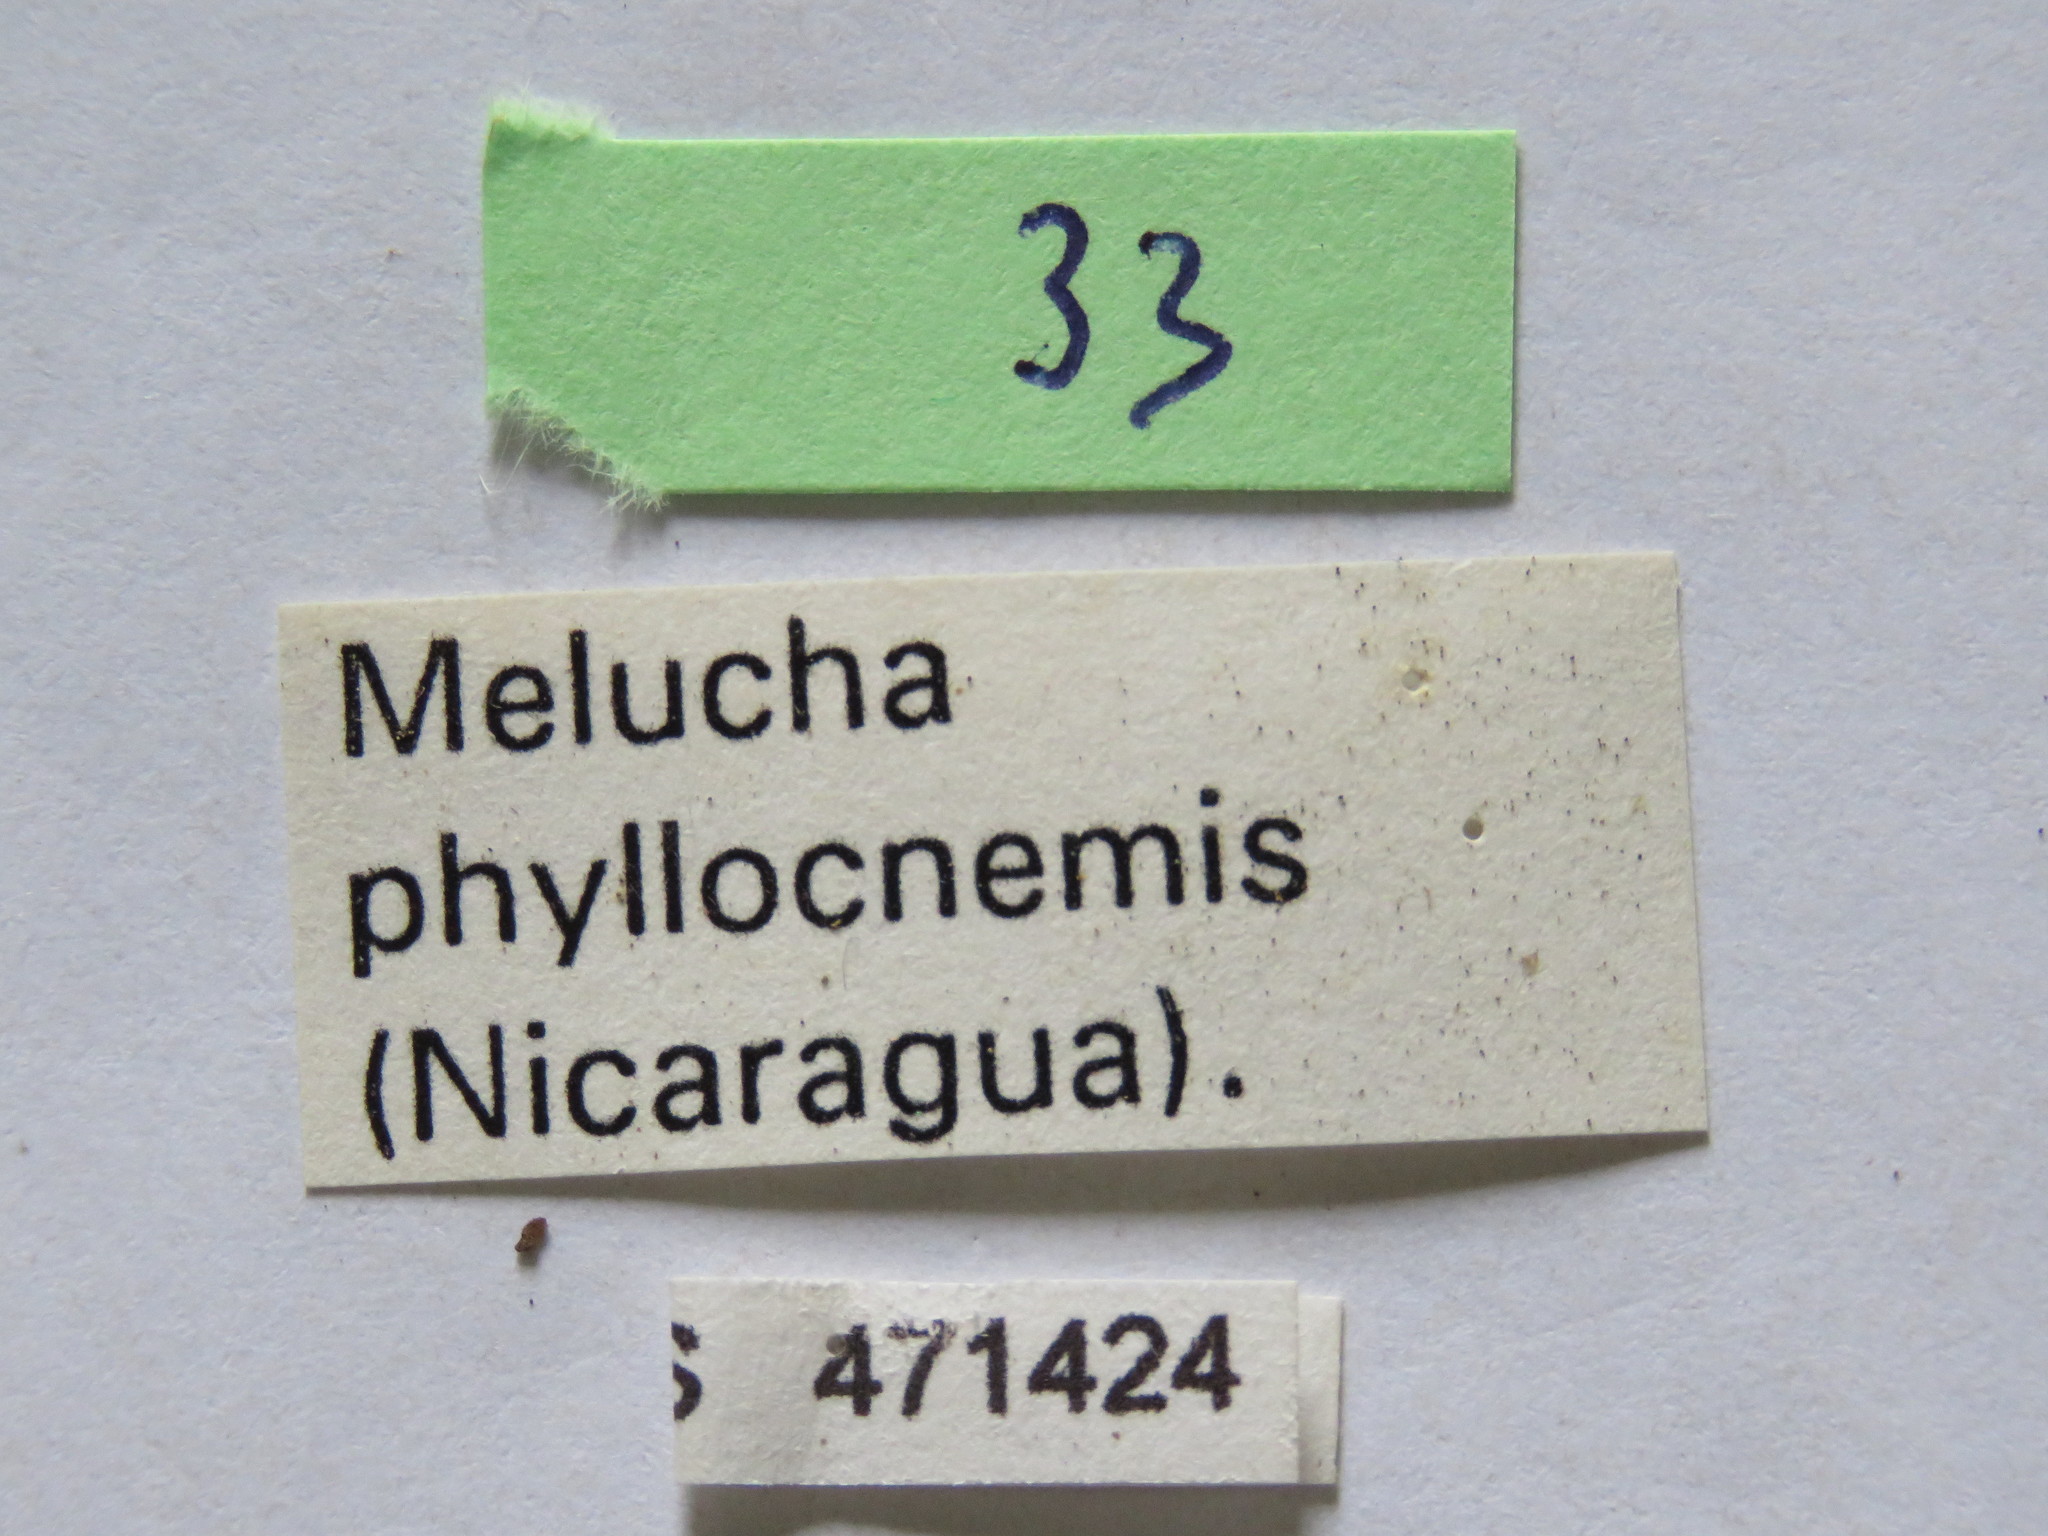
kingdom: Animalia
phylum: Arthropoda
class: Insecta
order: Hemiptera
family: Coreidae
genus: Melucha
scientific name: Melucha quadrivittis
